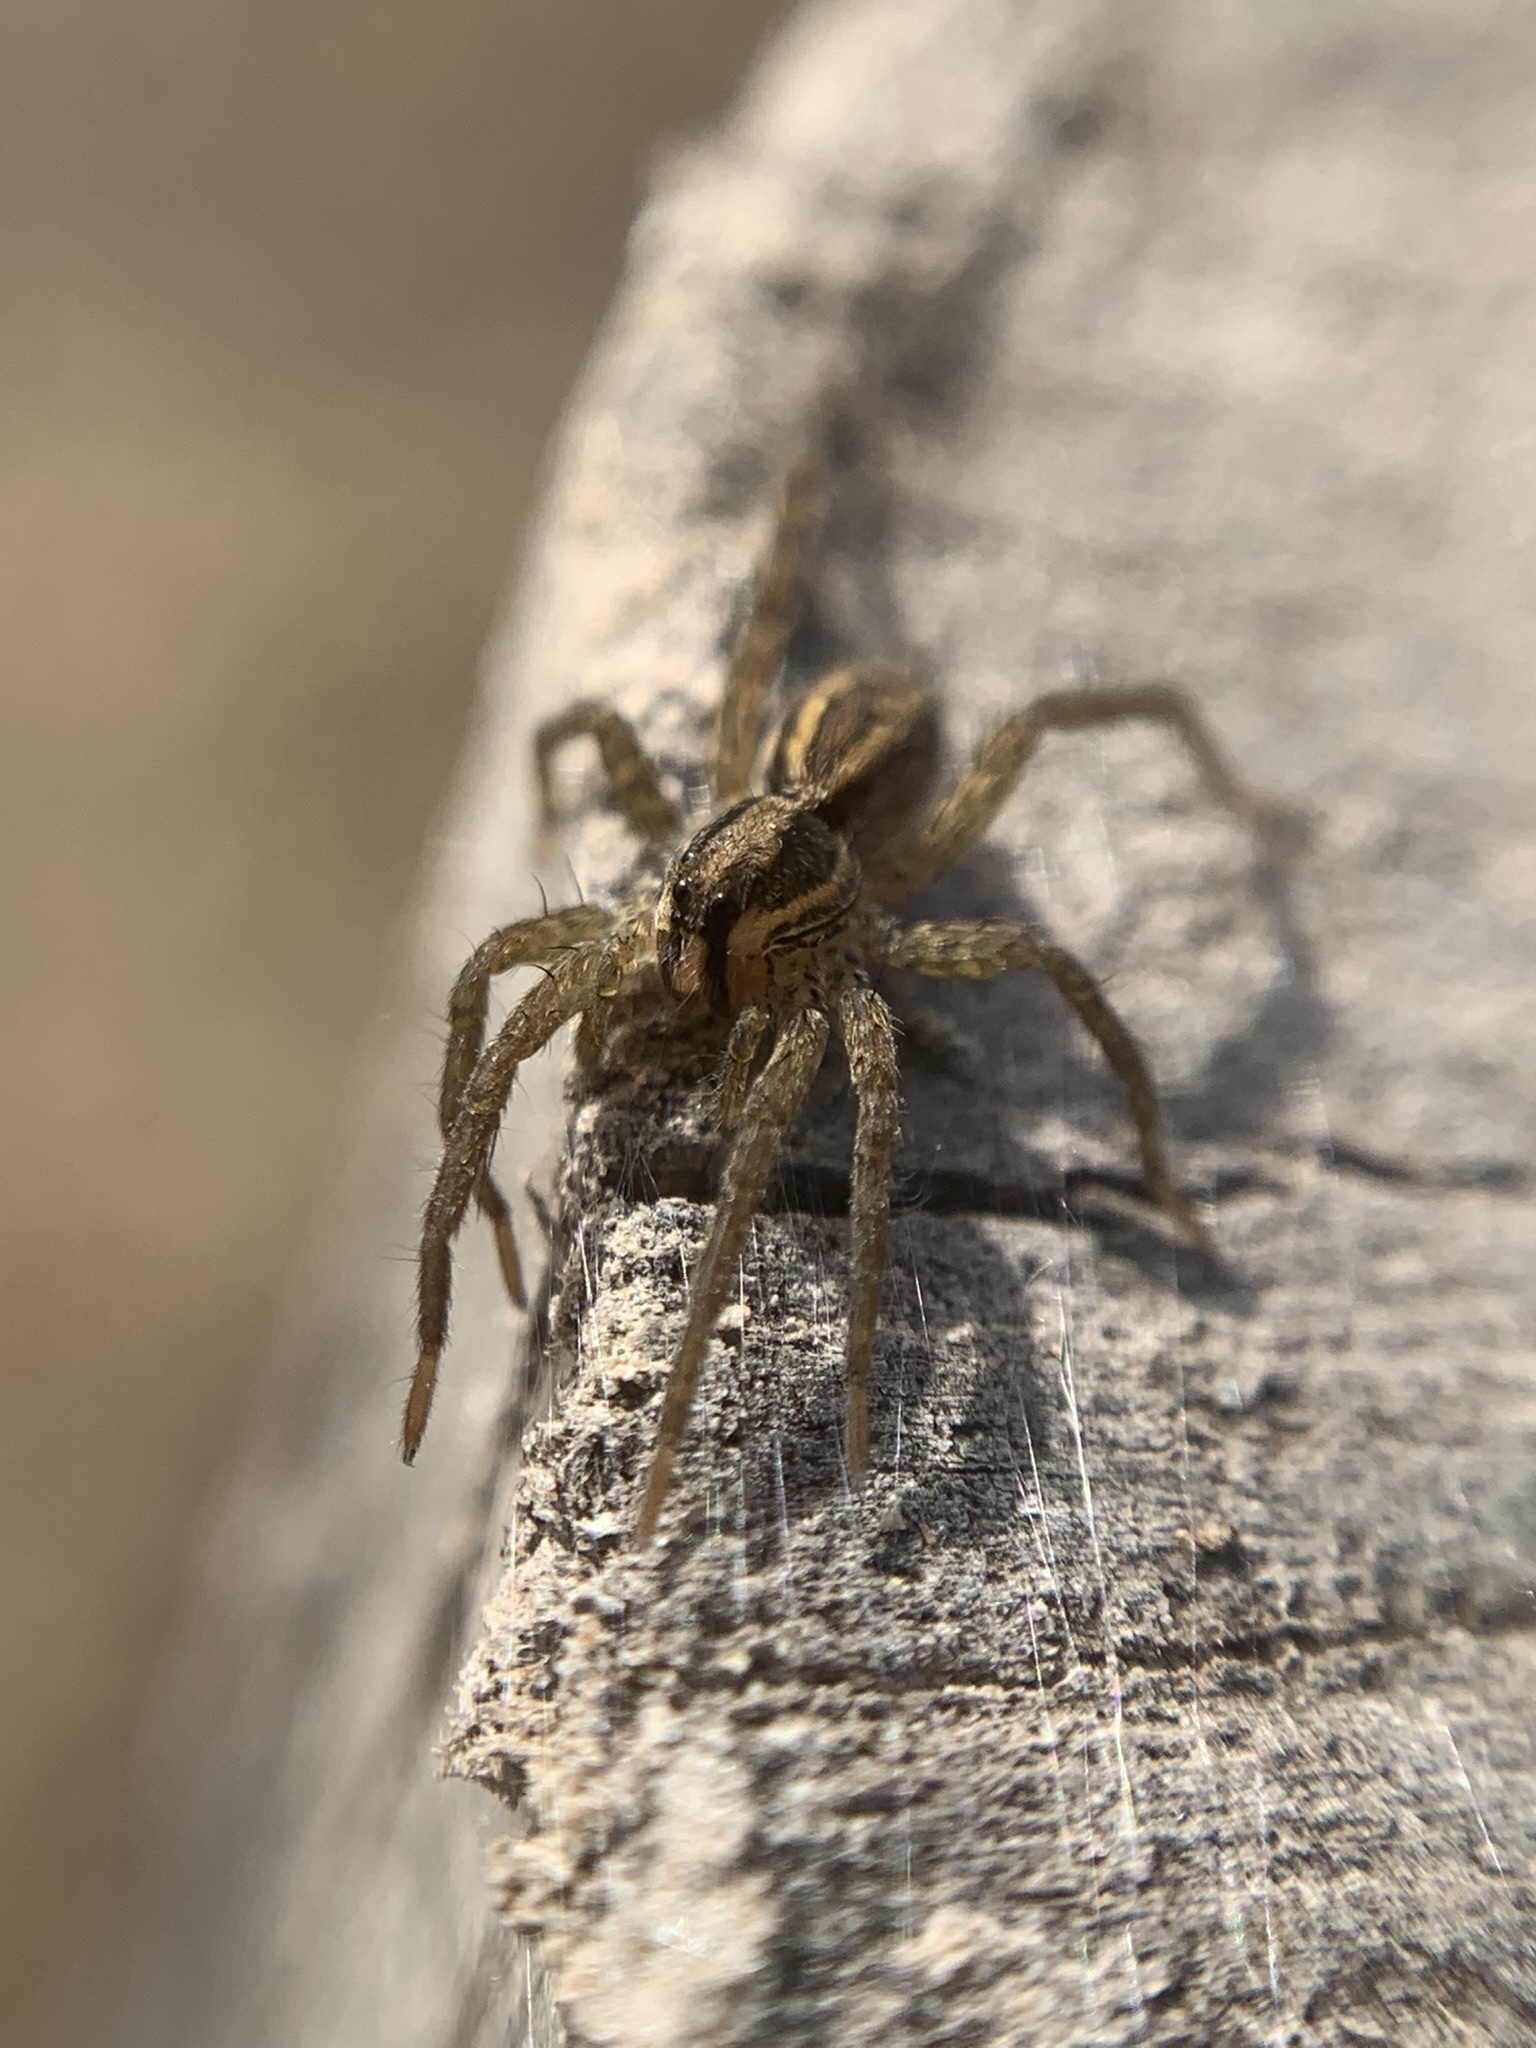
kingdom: Animalia
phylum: Arthropoda
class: Arachnida
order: Araneae
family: Lycosidae
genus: Alopecosa
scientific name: Alopecosa moesta
